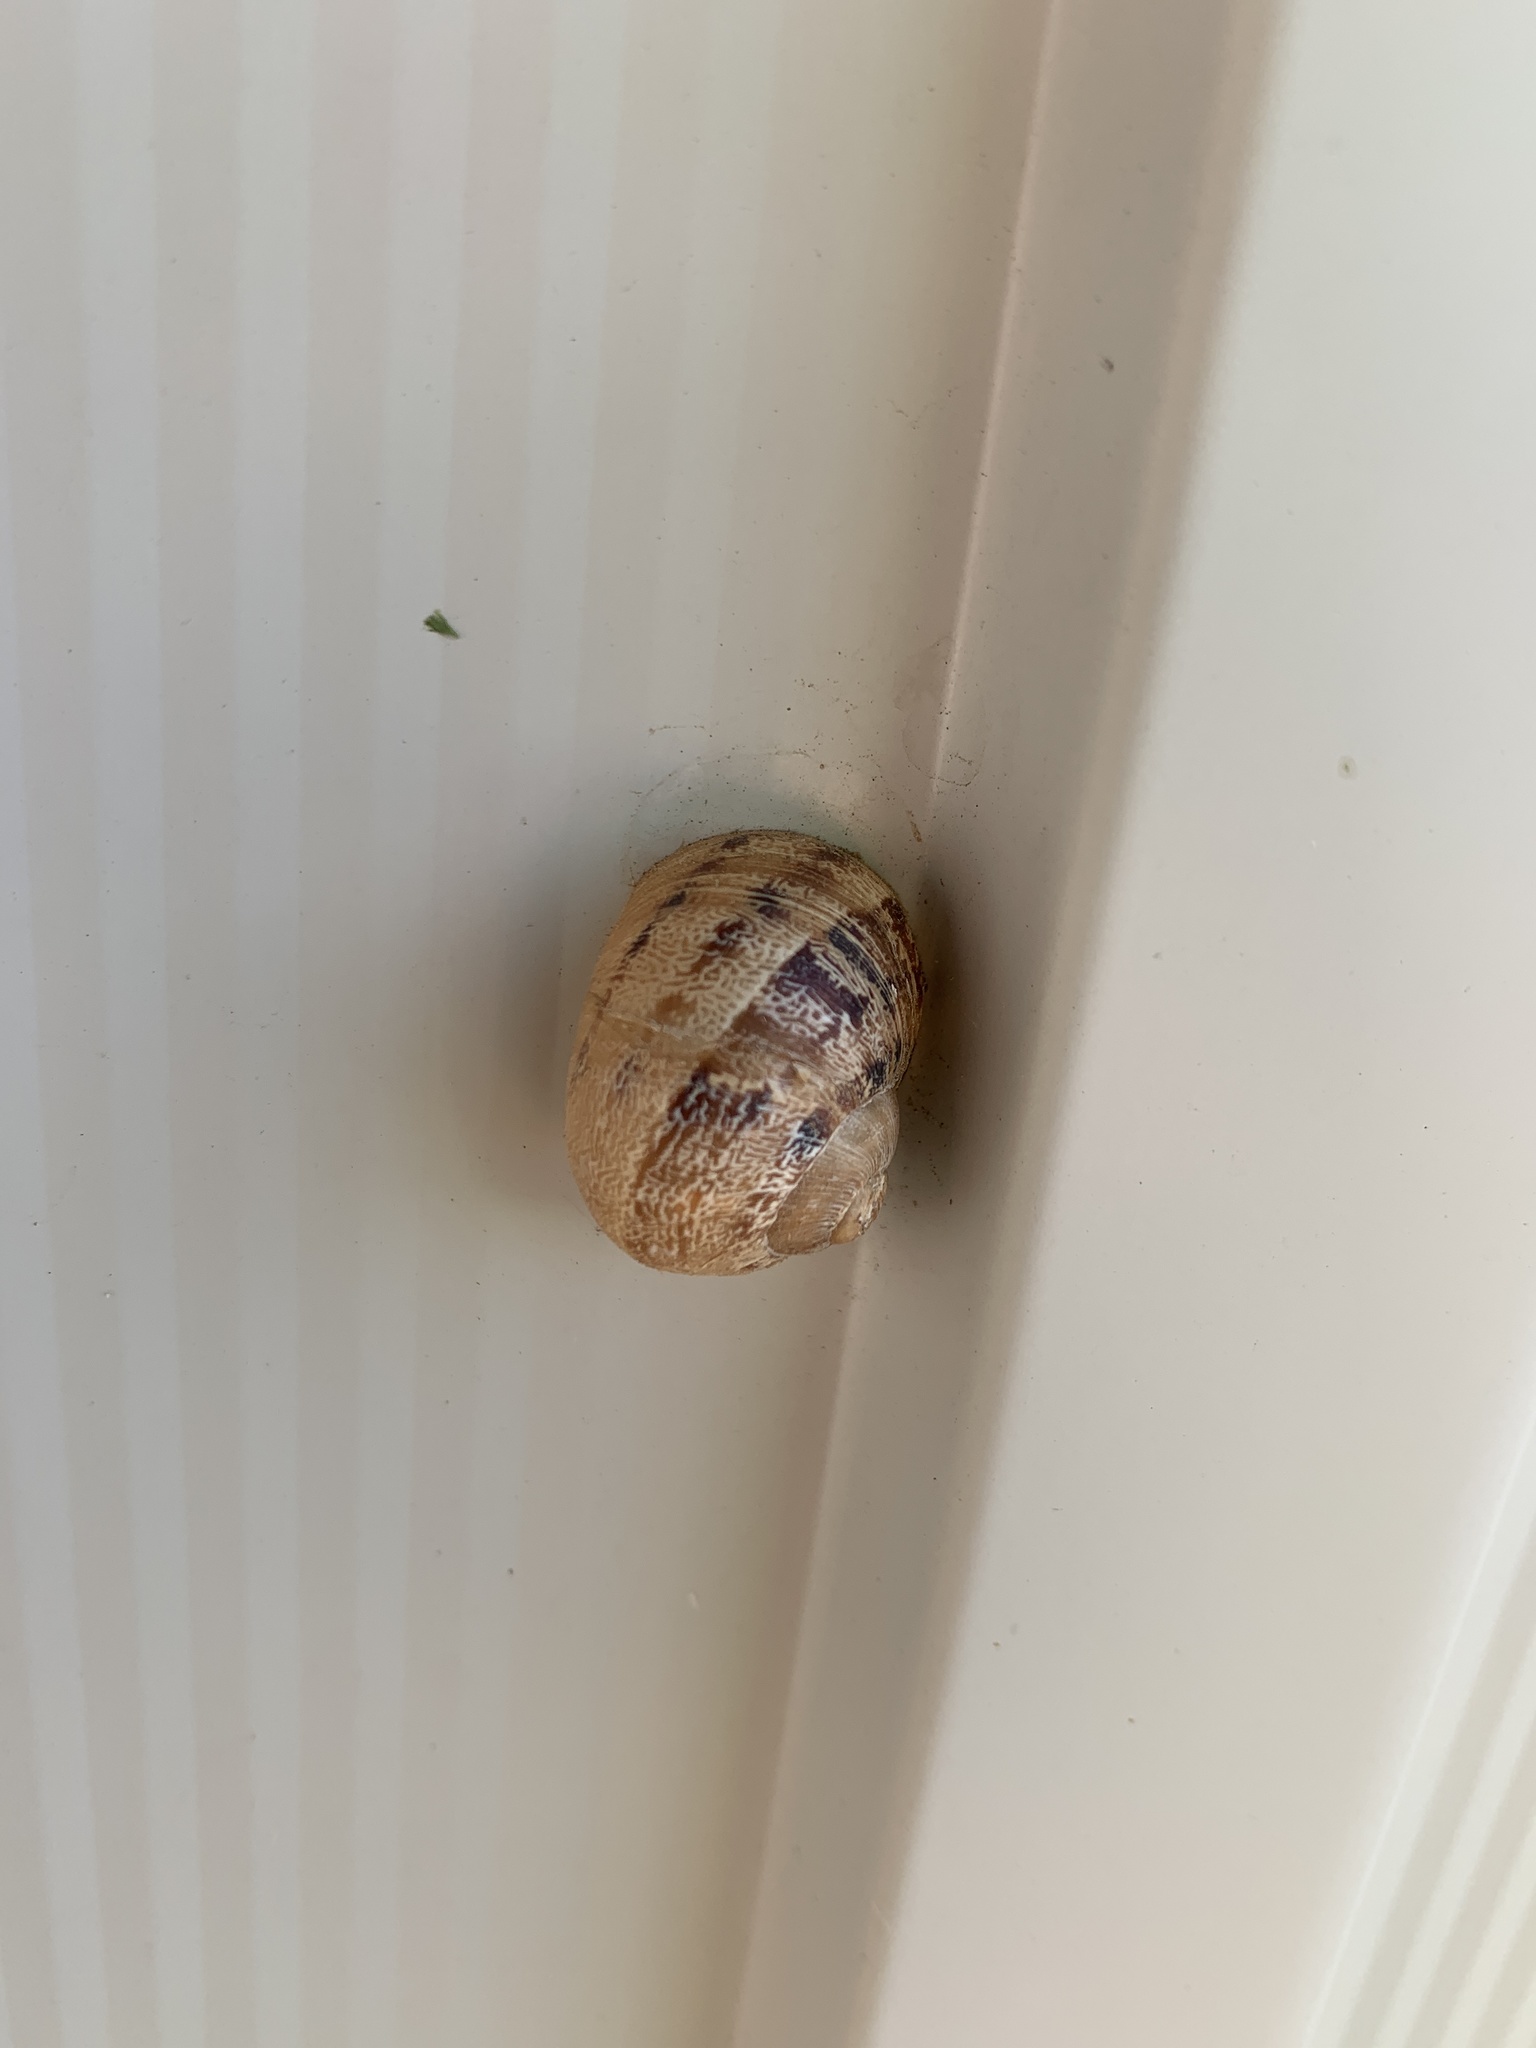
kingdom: Animalia
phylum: Mollusca
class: Gastropoda
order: Stylommatophora
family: Helicidae
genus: Cornu
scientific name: Cornu aspersum
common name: Brown garden snail
